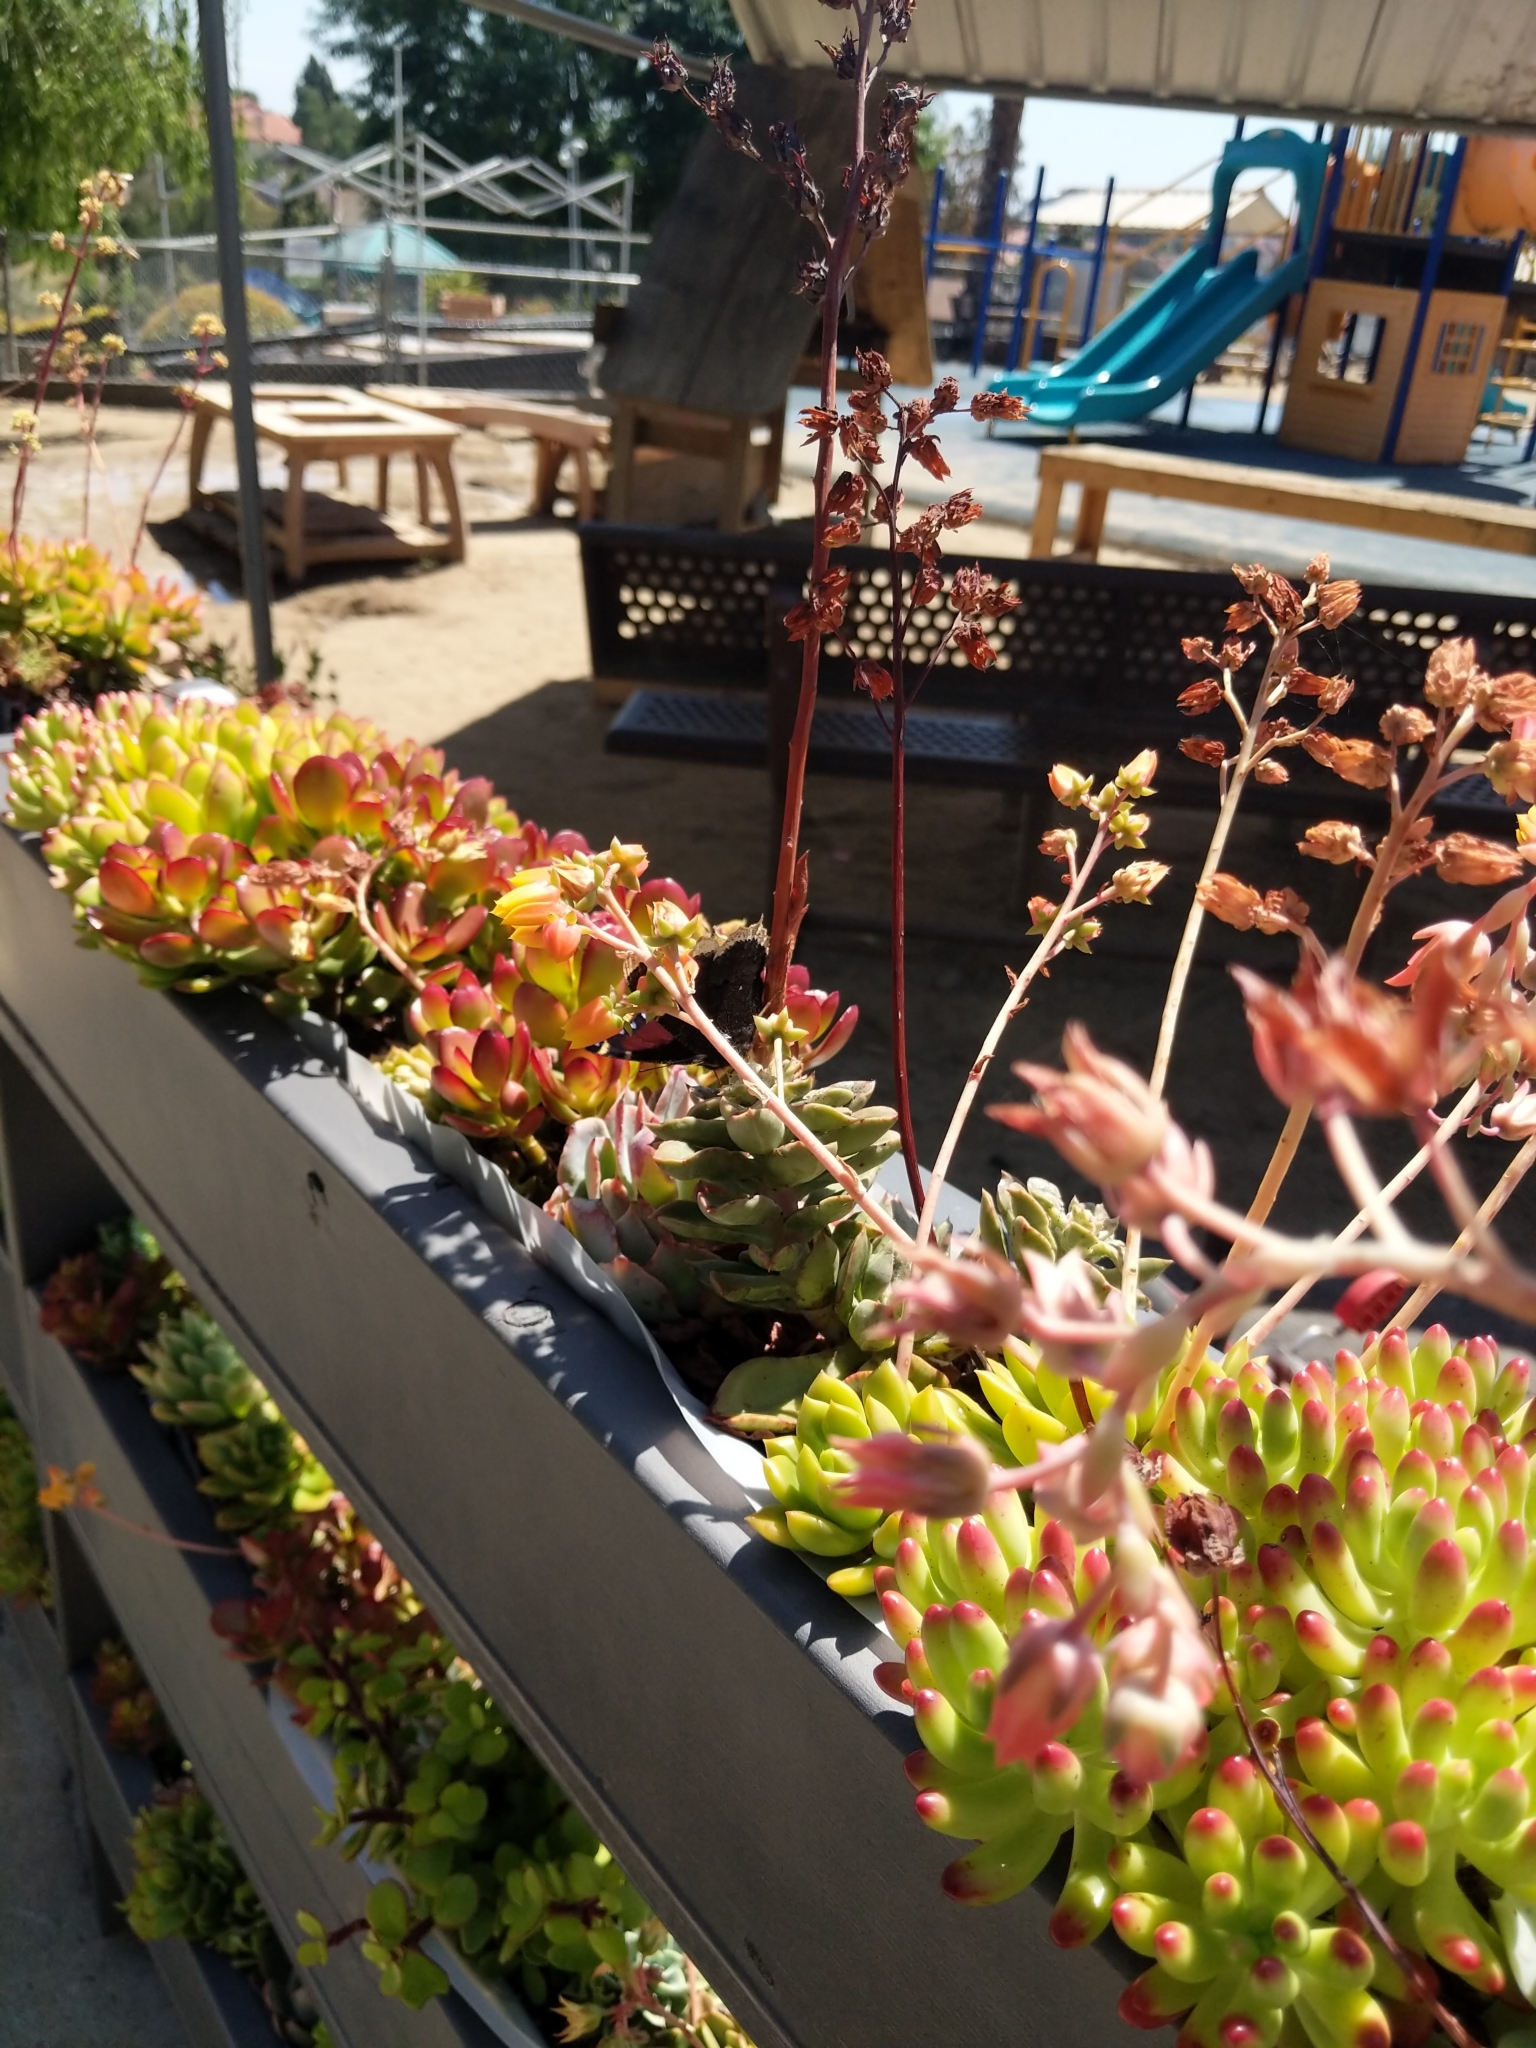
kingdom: Animalia
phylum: Arthropoda
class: Insecta
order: Lepidoptera
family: Nymphalidae
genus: Nymphalis
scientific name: Nymphalis antiopa
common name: Camberwell beauty
